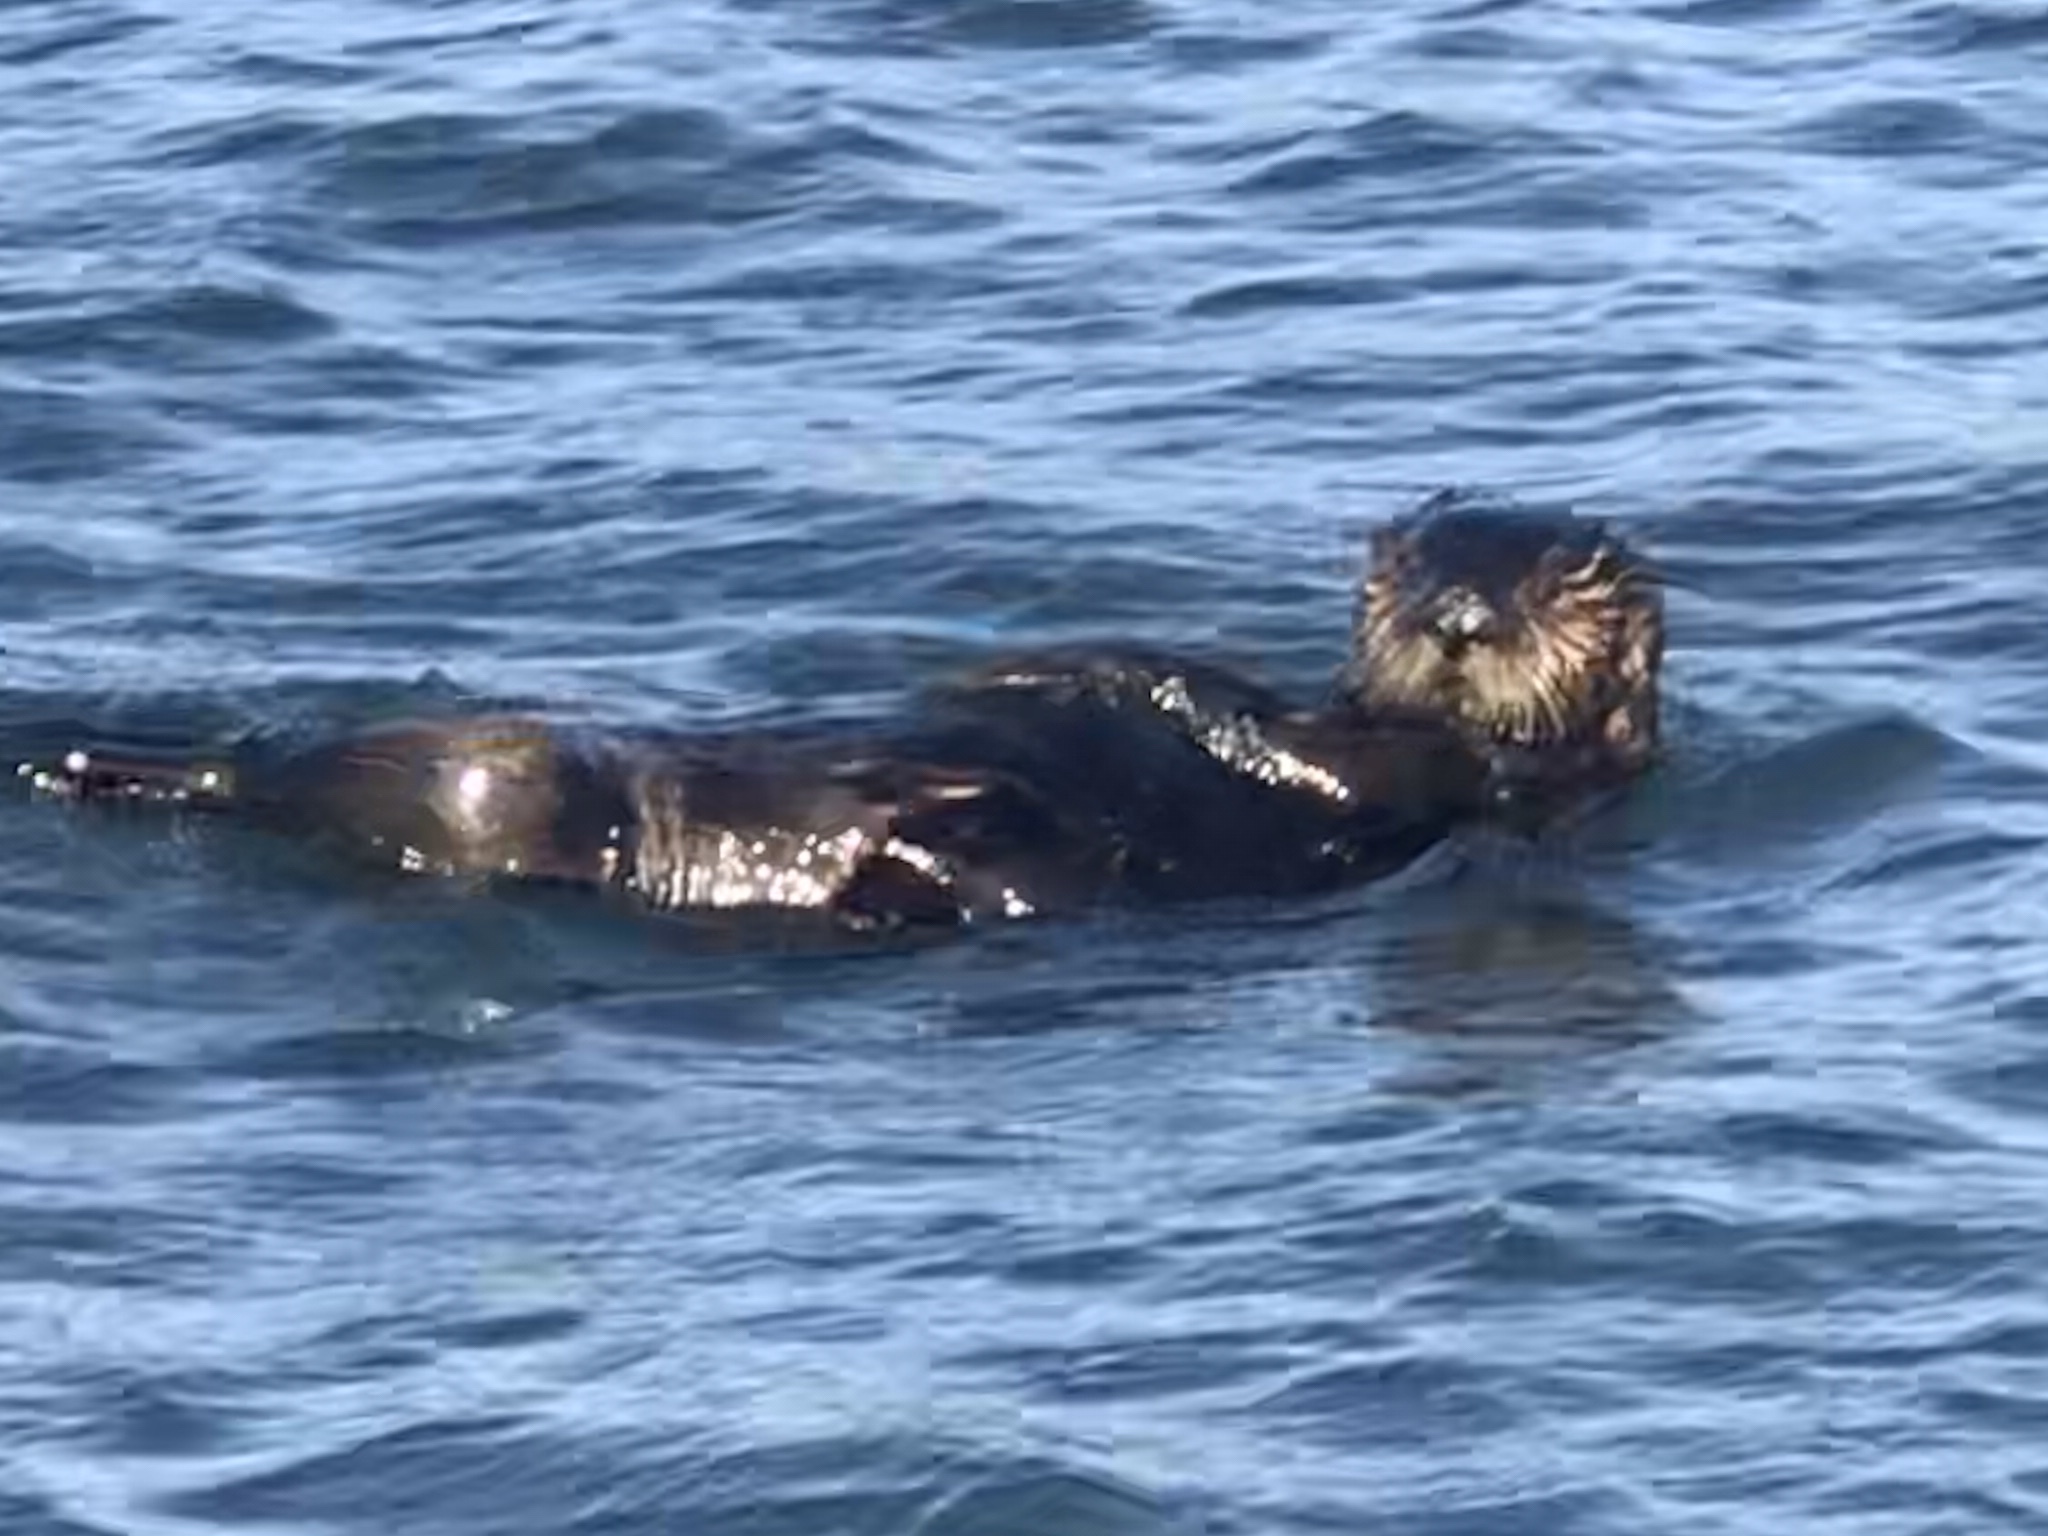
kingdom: Animalia
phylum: Chordata
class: Mammalia
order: Carnivora
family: Mustelidae
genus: Enhydra
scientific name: Enhydra lutris
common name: Sea otter
